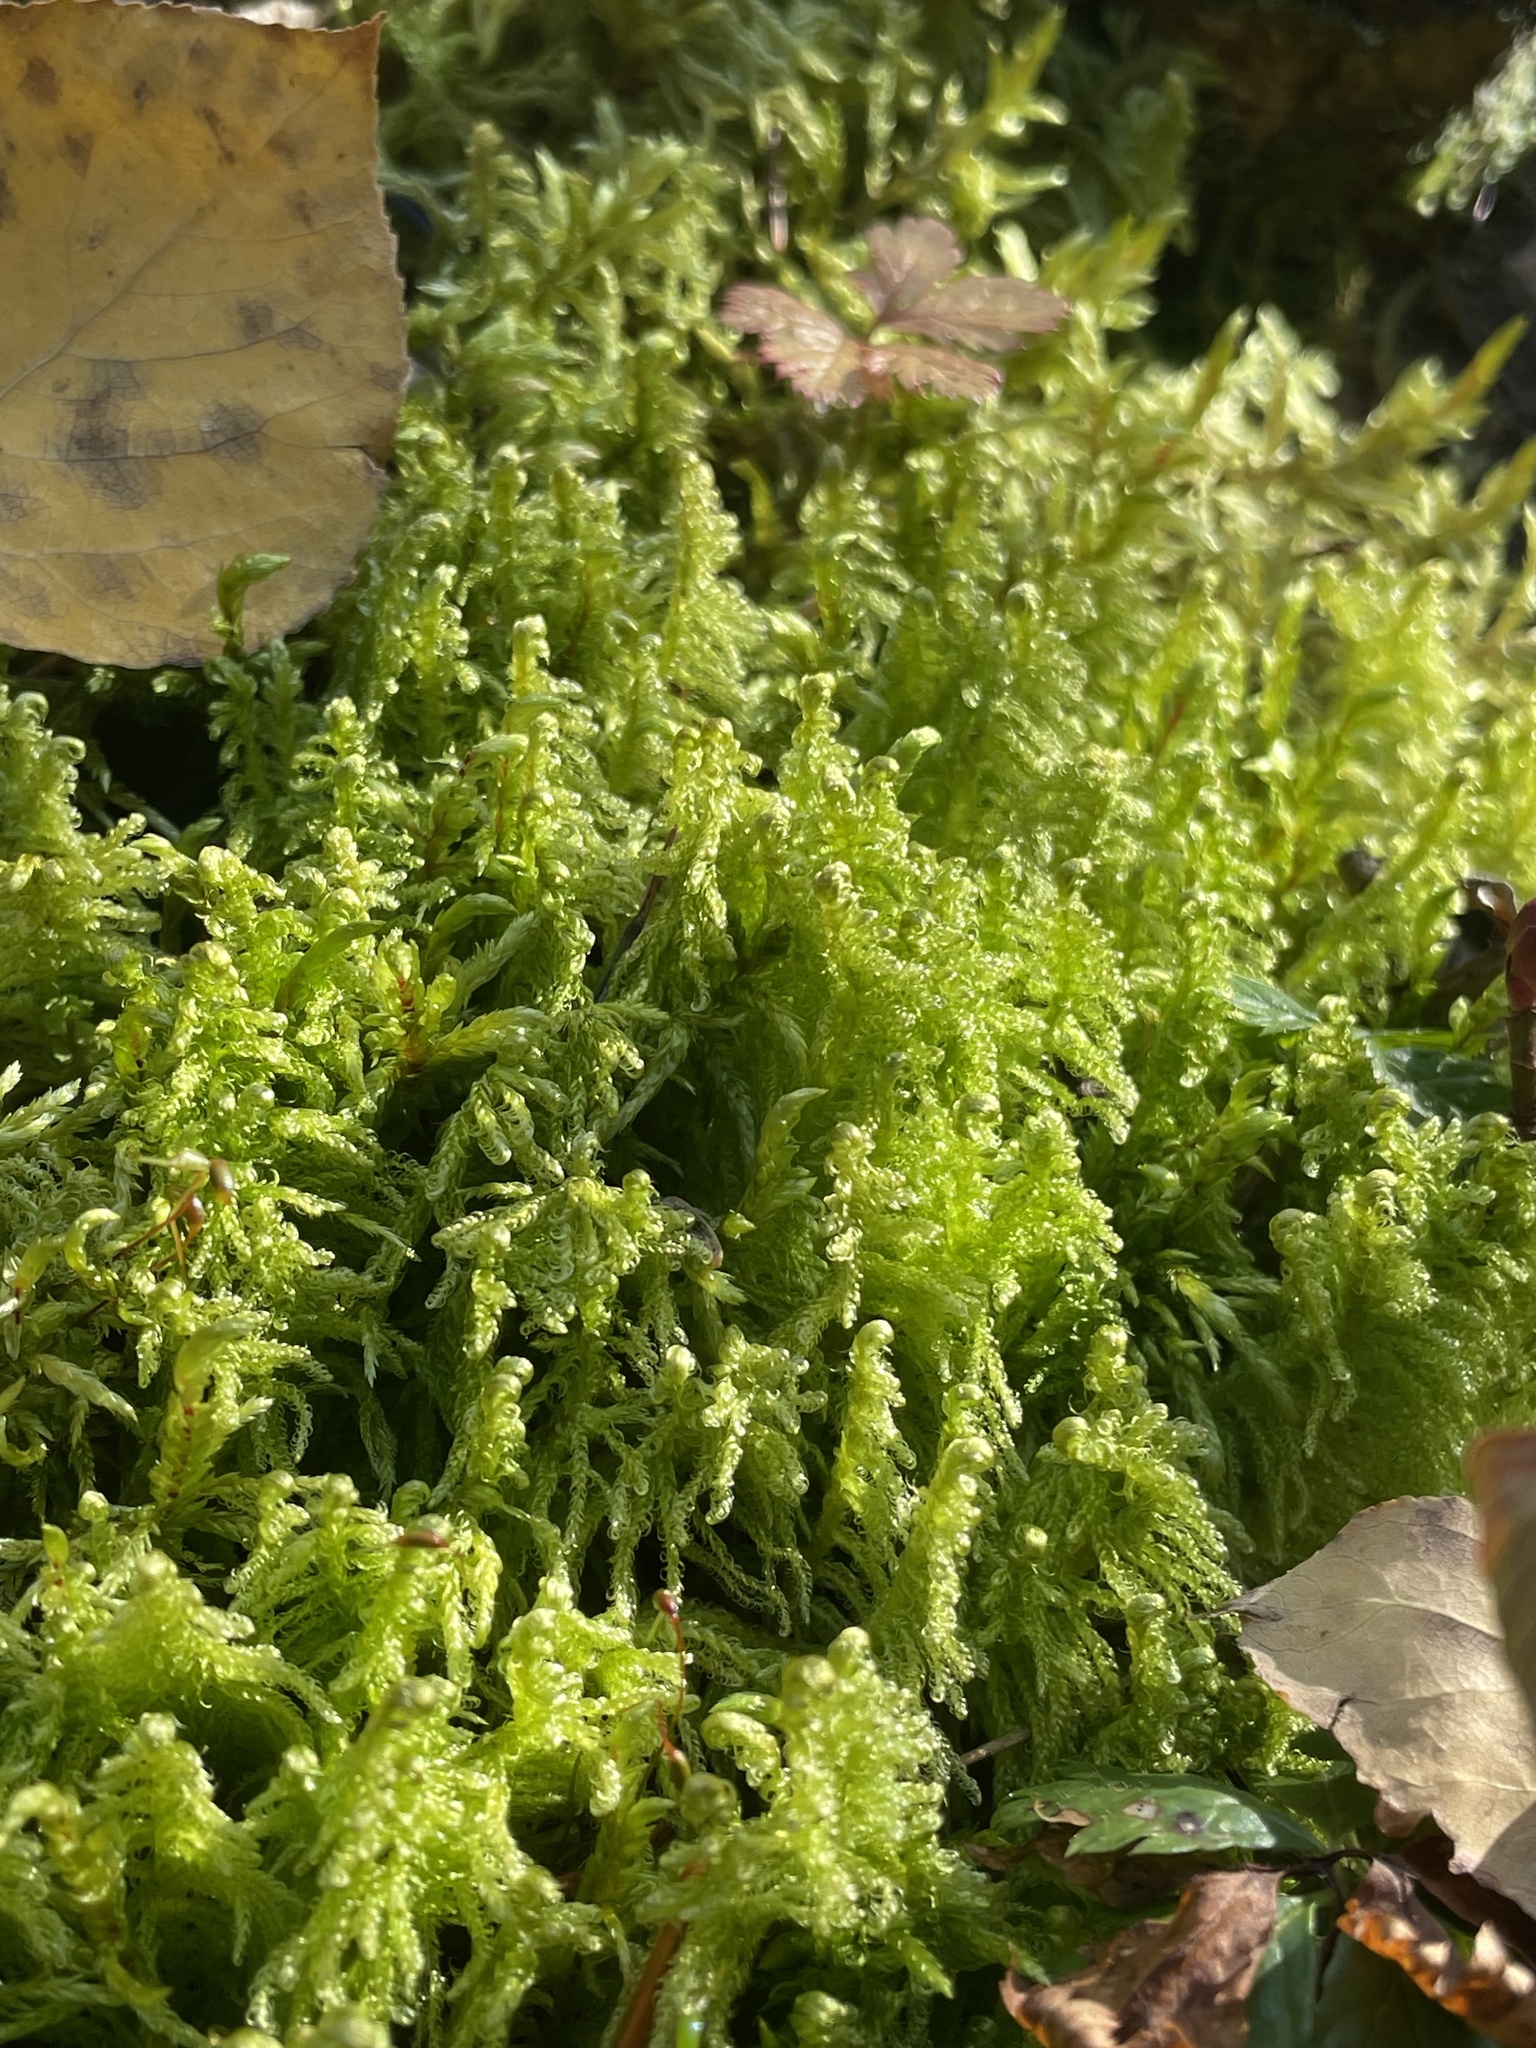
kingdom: Plantae
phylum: Bryophyta
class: Bryopsida
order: Hypnales
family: Pylaisiaceae
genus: Ptilium
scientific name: Ptilium crista-castrensis
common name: Knight's plume moss
